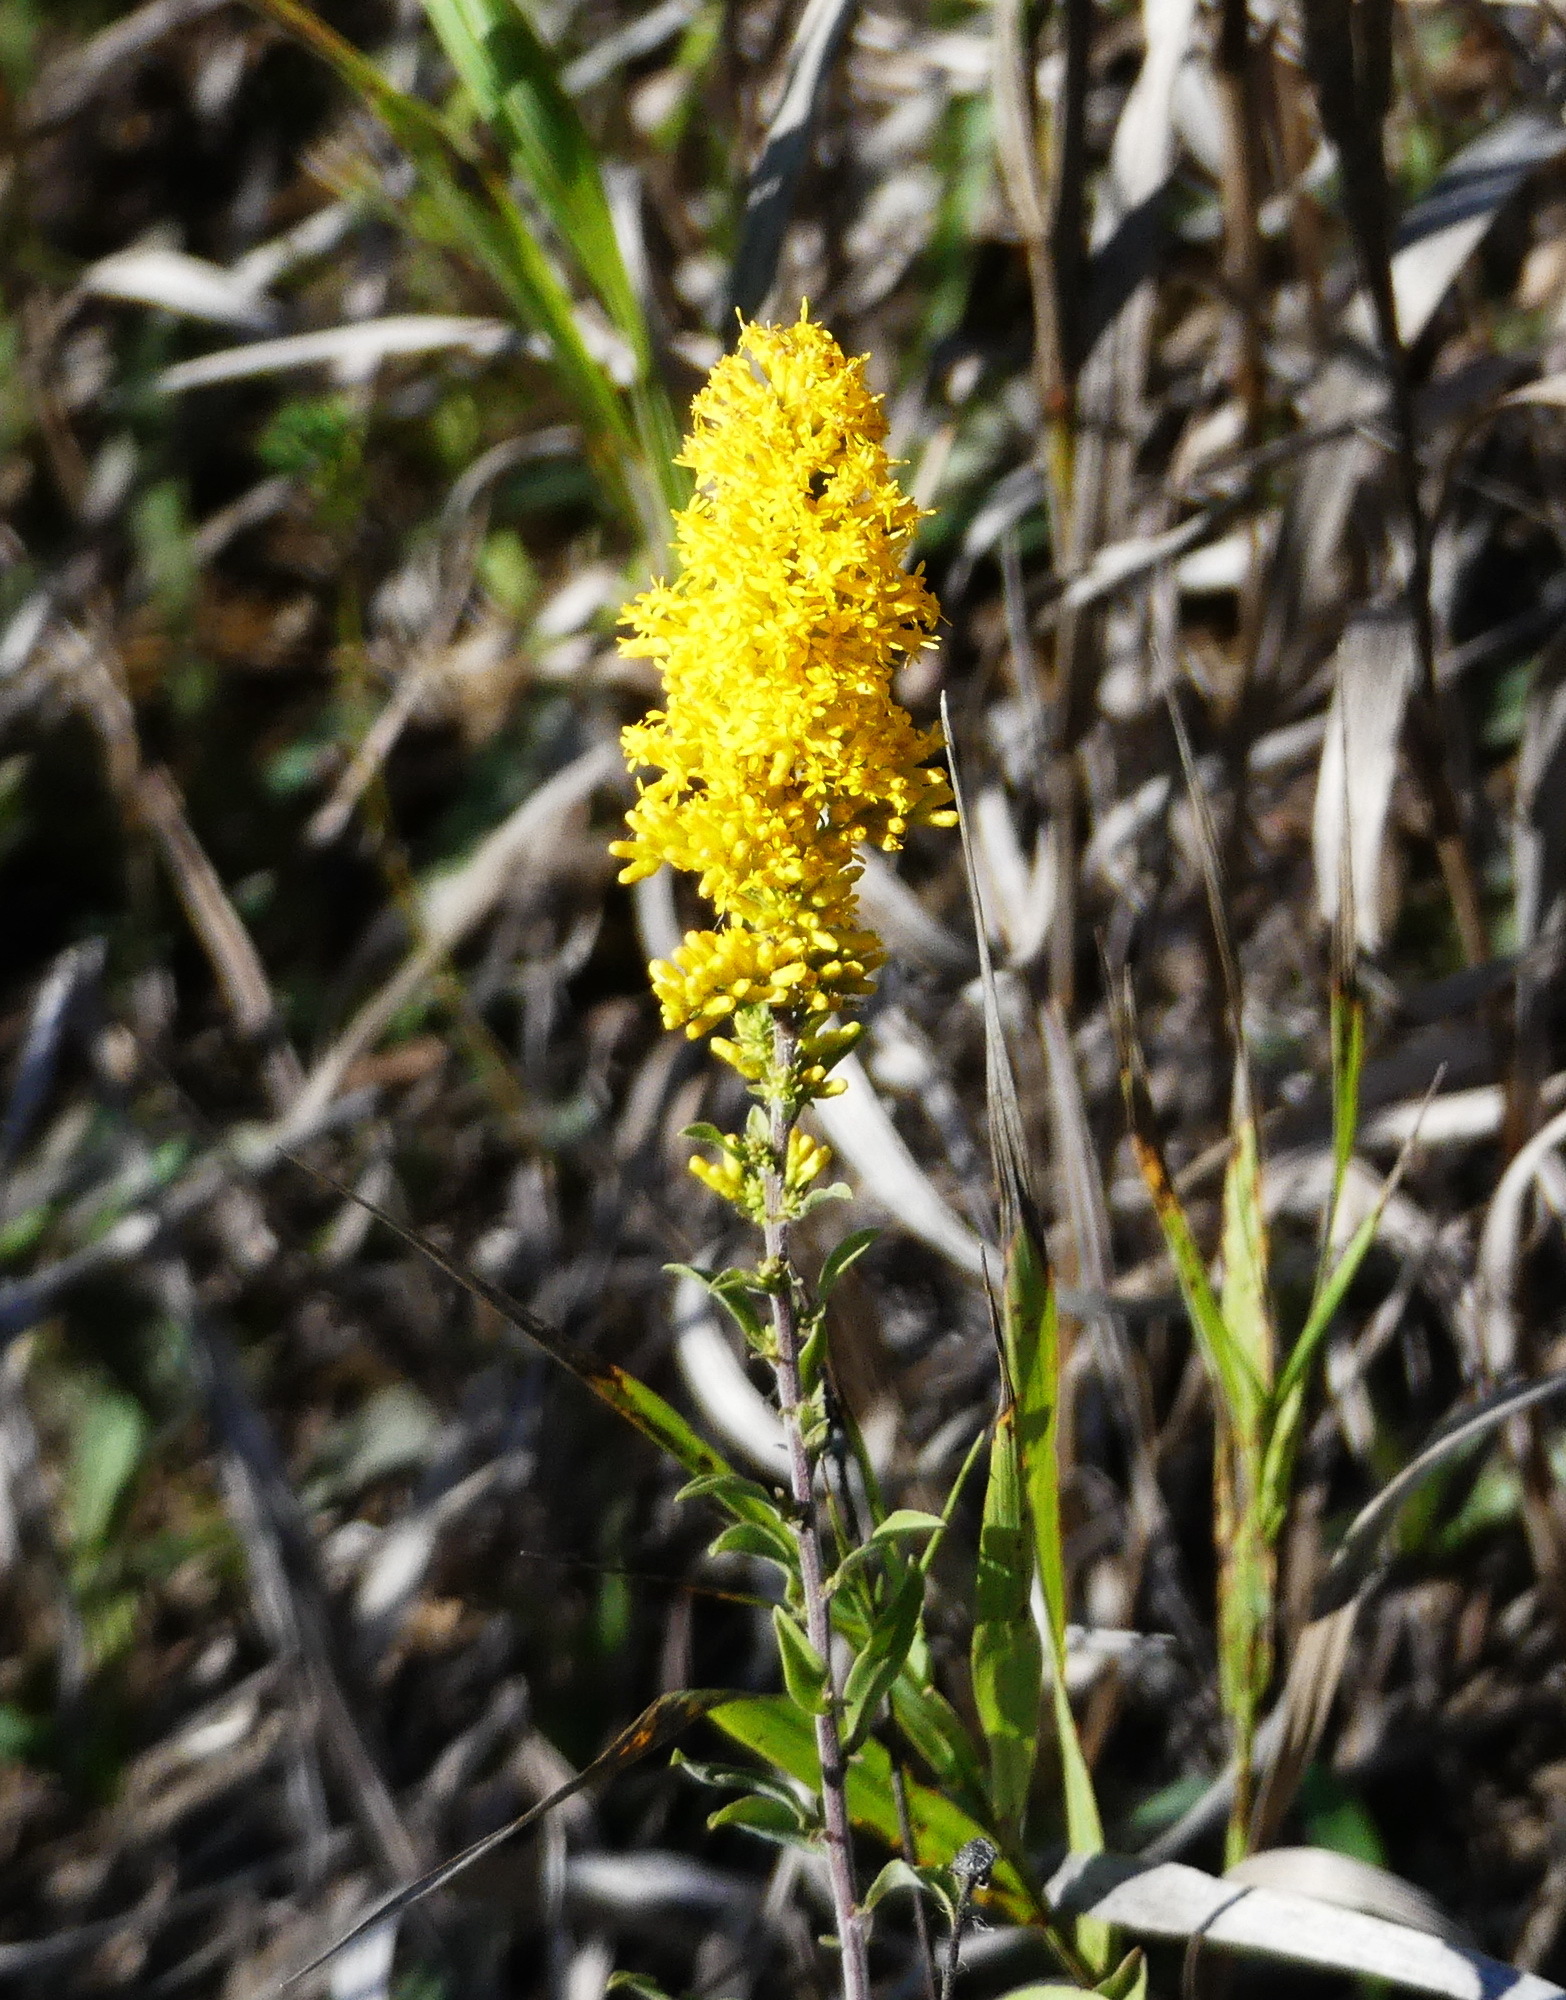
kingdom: Plantae
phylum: Tracheophyta
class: Magnoliopsida
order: Asterales
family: Asteraceae
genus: Solidago
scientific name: Solidago nemoralis
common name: Grey goldenrod
